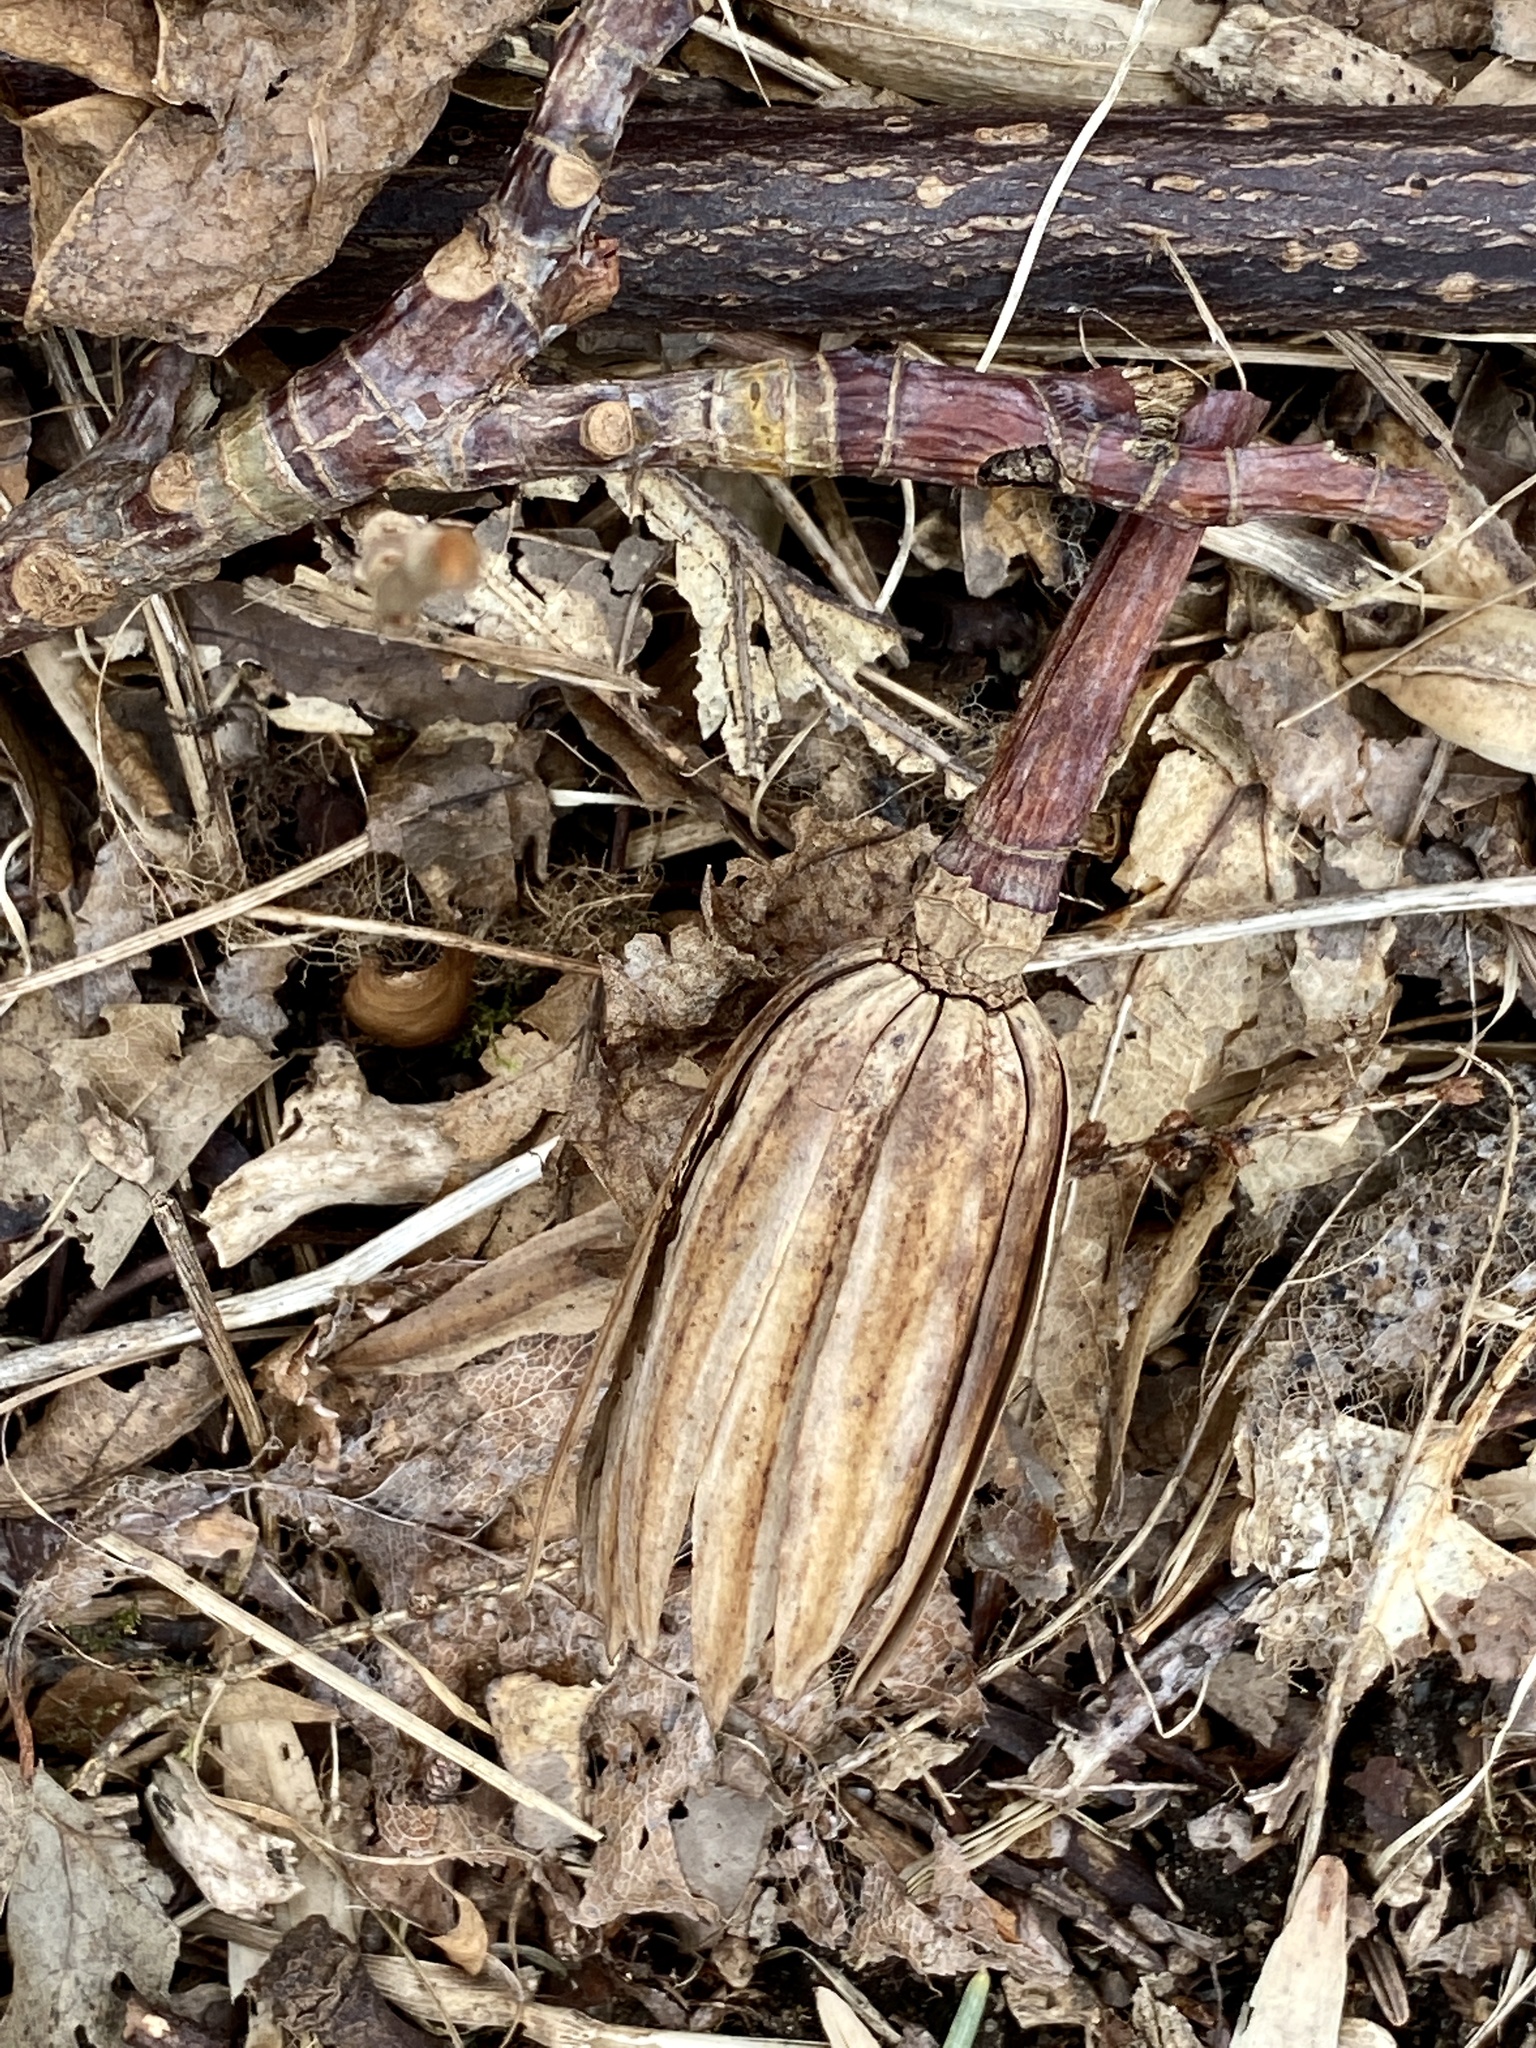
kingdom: Plantae
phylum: Tracheophyta
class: Magnoliopsida
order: Magnoliales
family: Magnoliaceae
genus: Liriodendron
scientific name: Liriodendron tulipifera
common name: Tulip tree
